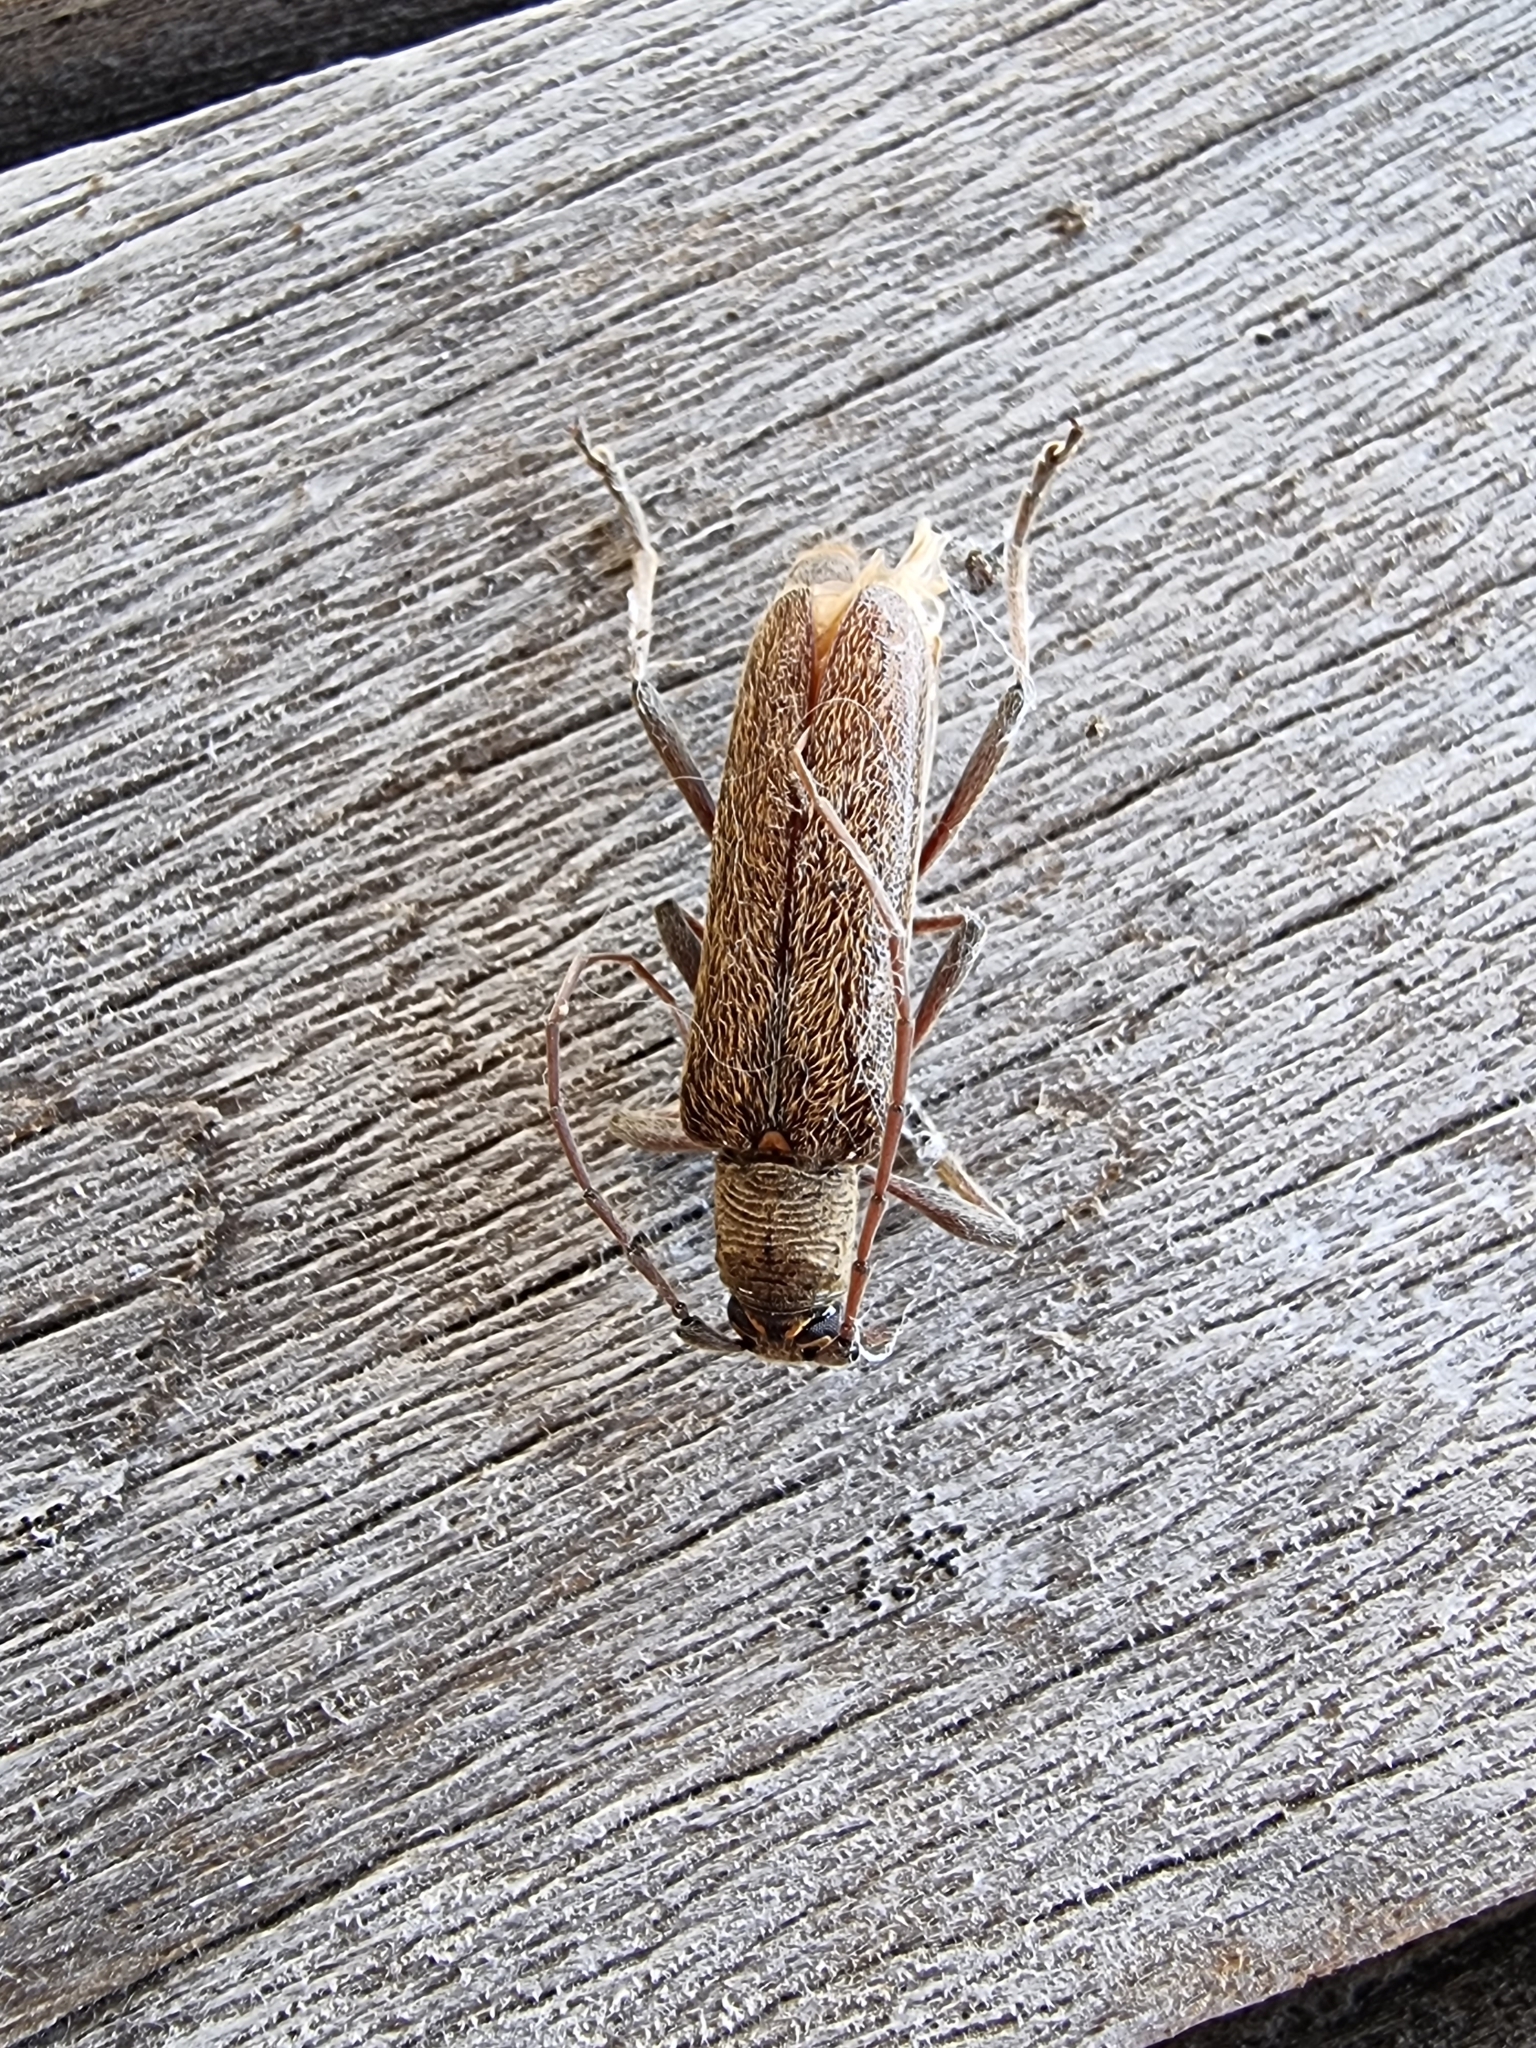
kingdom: Animalia
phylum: Arthropoda
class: Insecta
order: Coleoptera
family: Cerambycidae
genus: Oemona
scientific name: Oemona hirta
